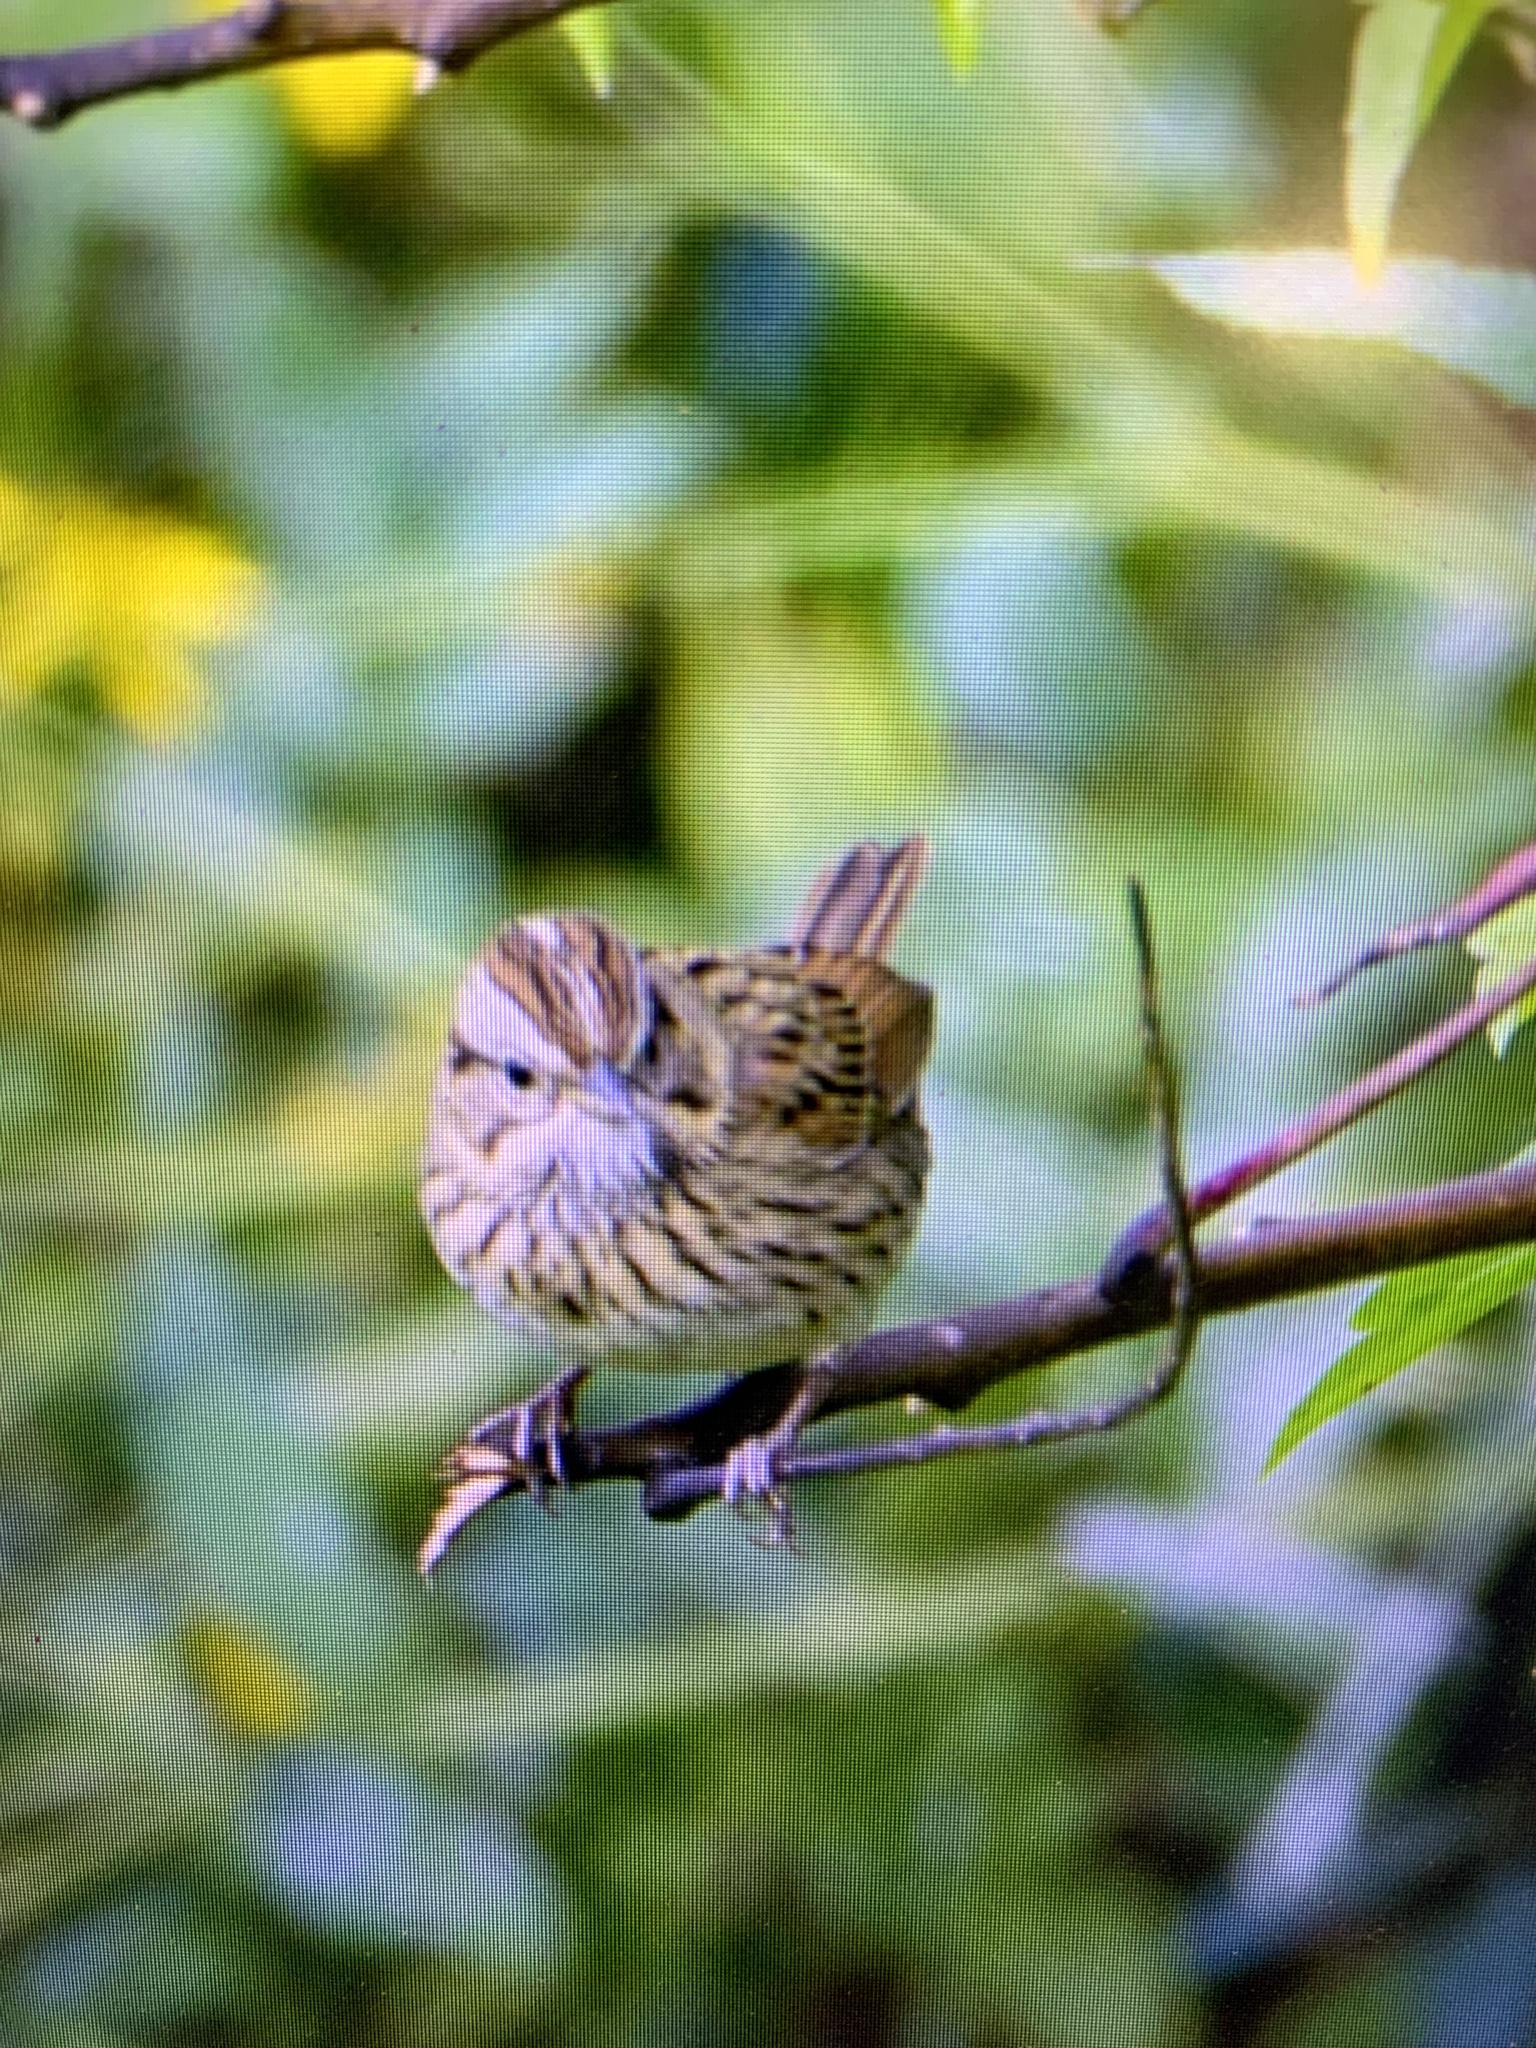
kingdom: Animalia
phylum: Chordata
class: Aves
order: Passeriformes
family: Passerellidae
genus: Melospiza
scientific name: Melospiza lincolnii
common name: Lincoln's sparrow
